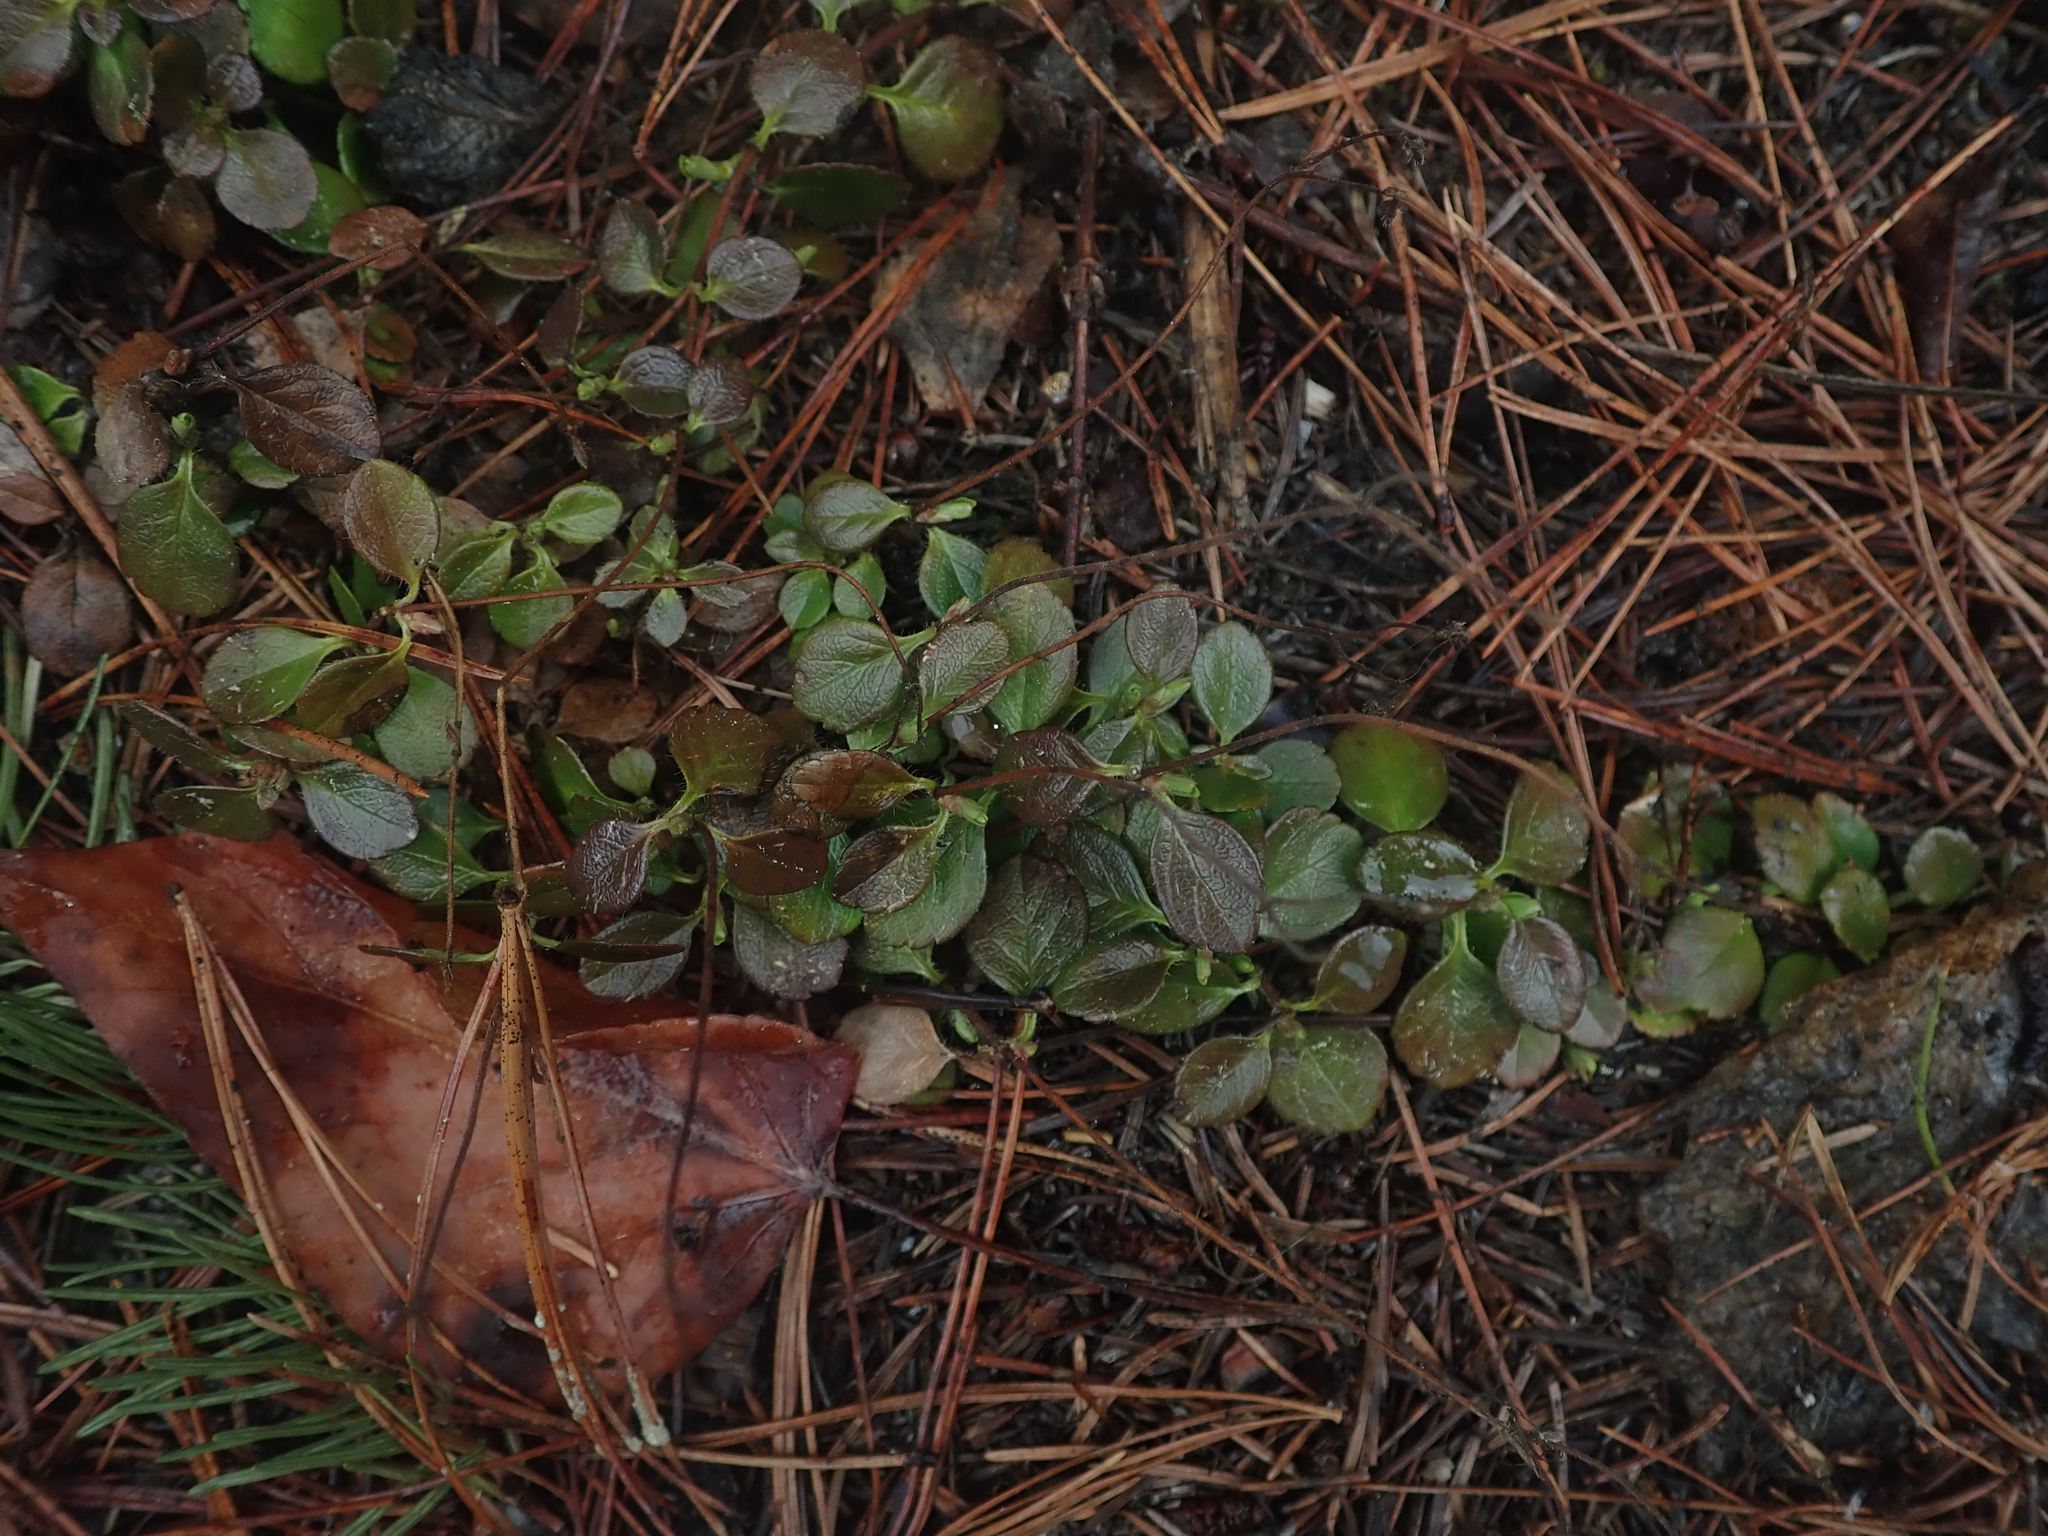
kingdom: Plantae
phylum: Tracheophyta
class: Magnoliopsida
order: Dipsacales
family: Caprifoliaceae
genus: Linnaea
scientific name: Linnaea borealis
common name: Twinflower
